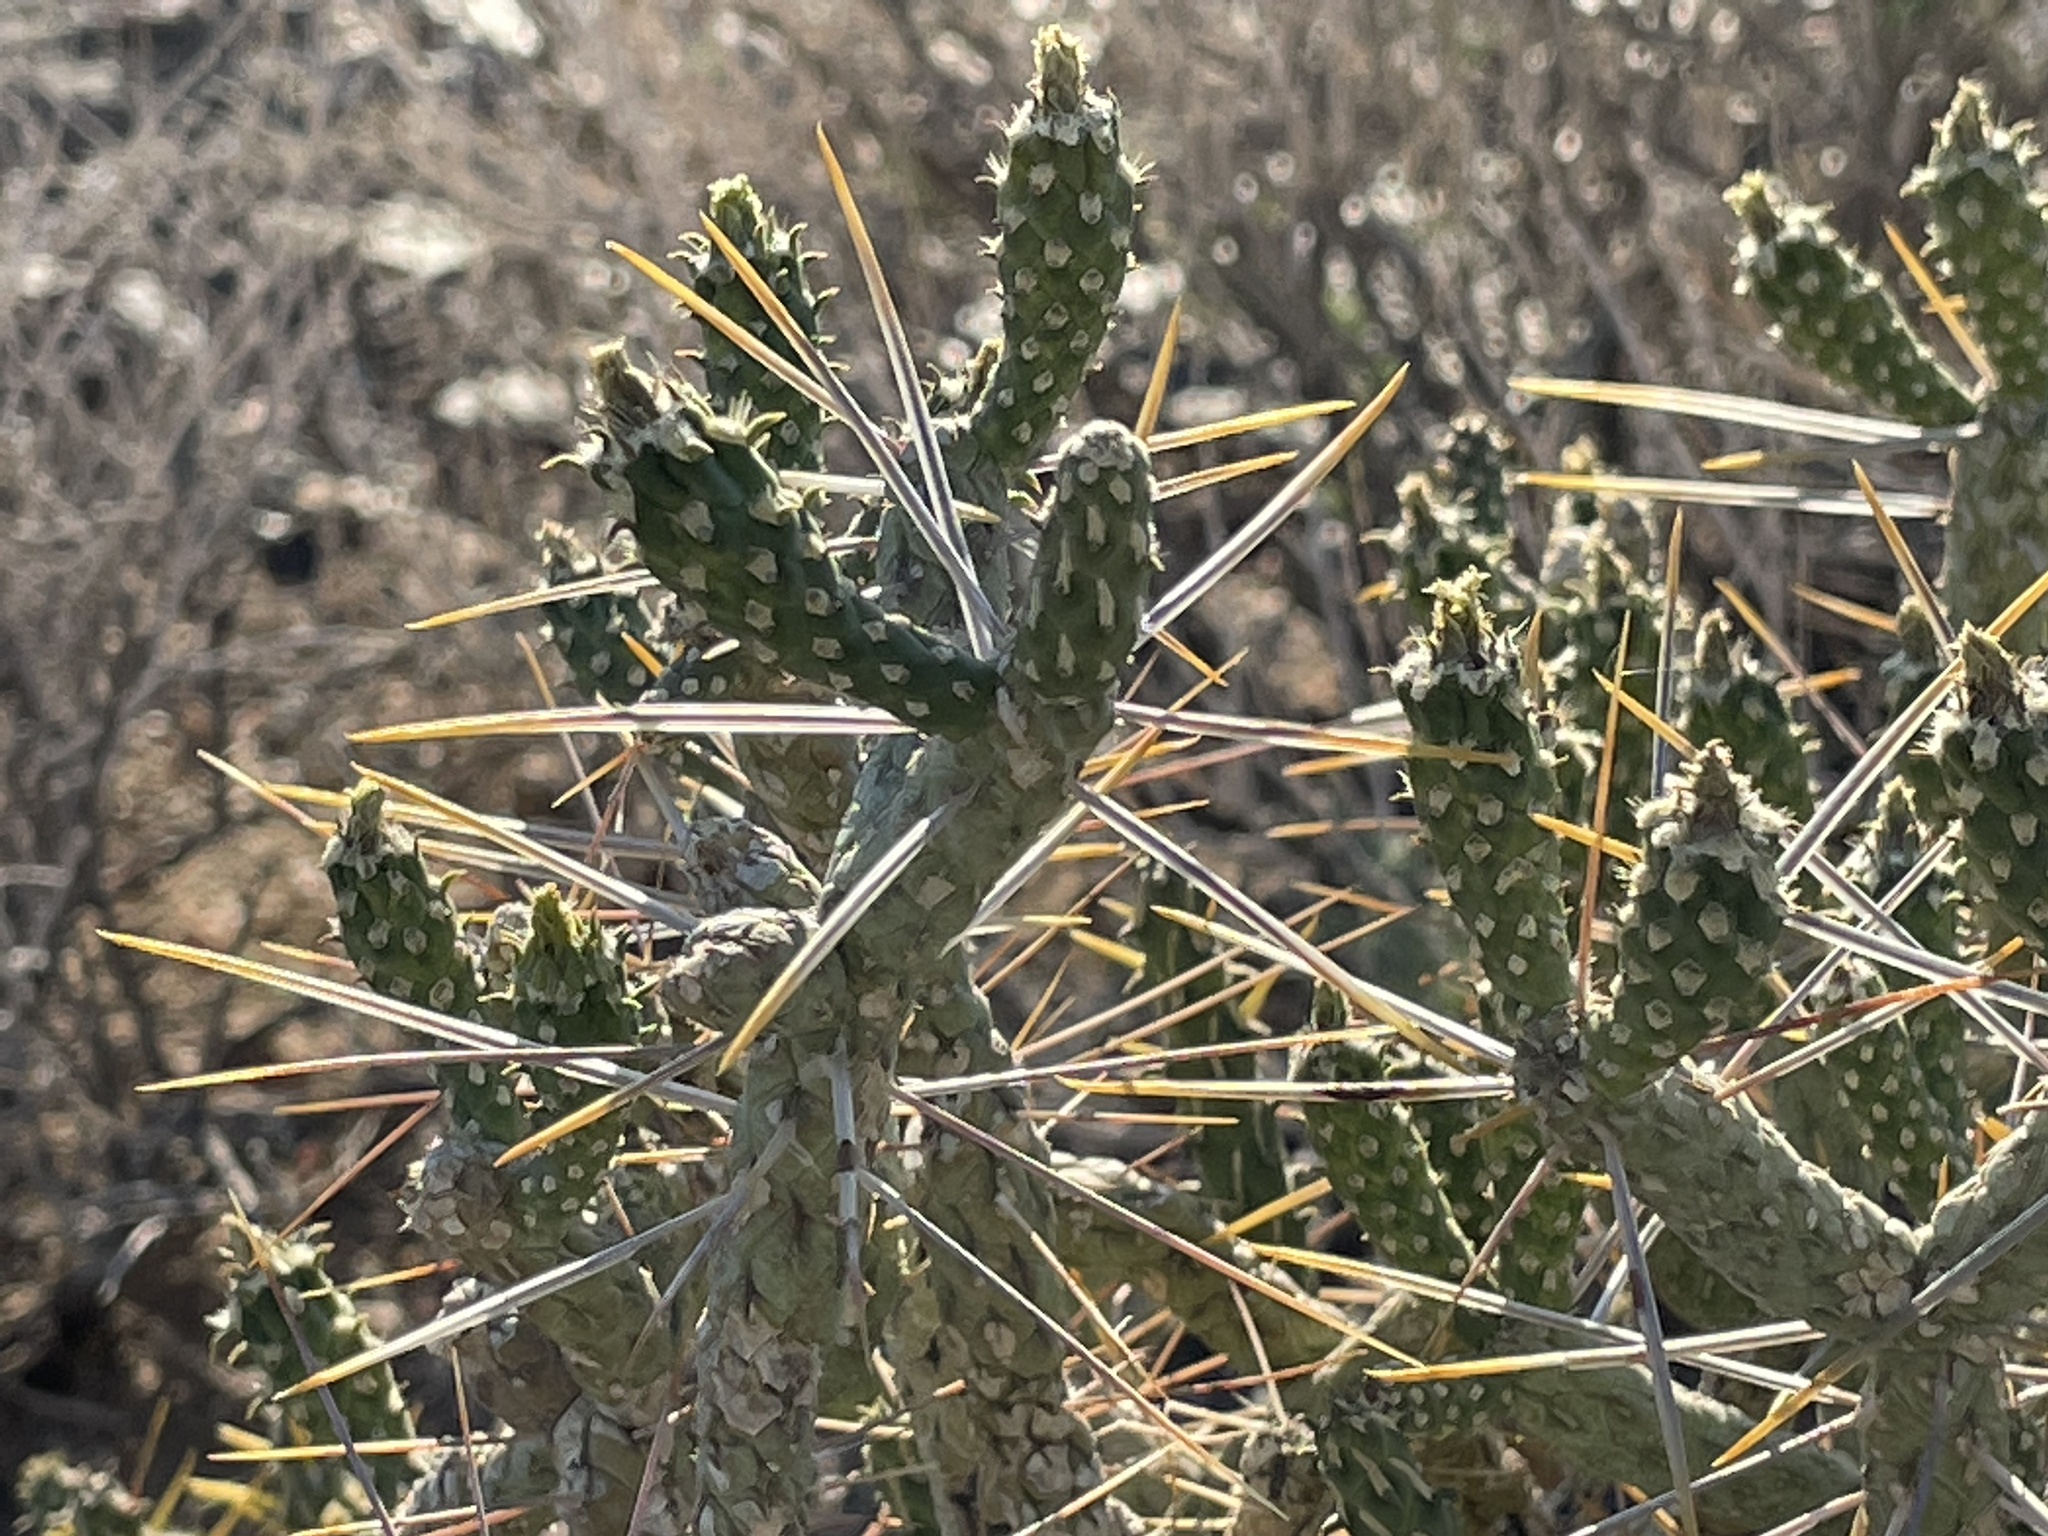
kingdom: Plantae
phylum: Tracheophyta
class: Magnoliopsida
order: Caryophyllales
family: Cactaceae
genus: Cylindropuntia
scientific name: Cylindropuntia ramosissima
